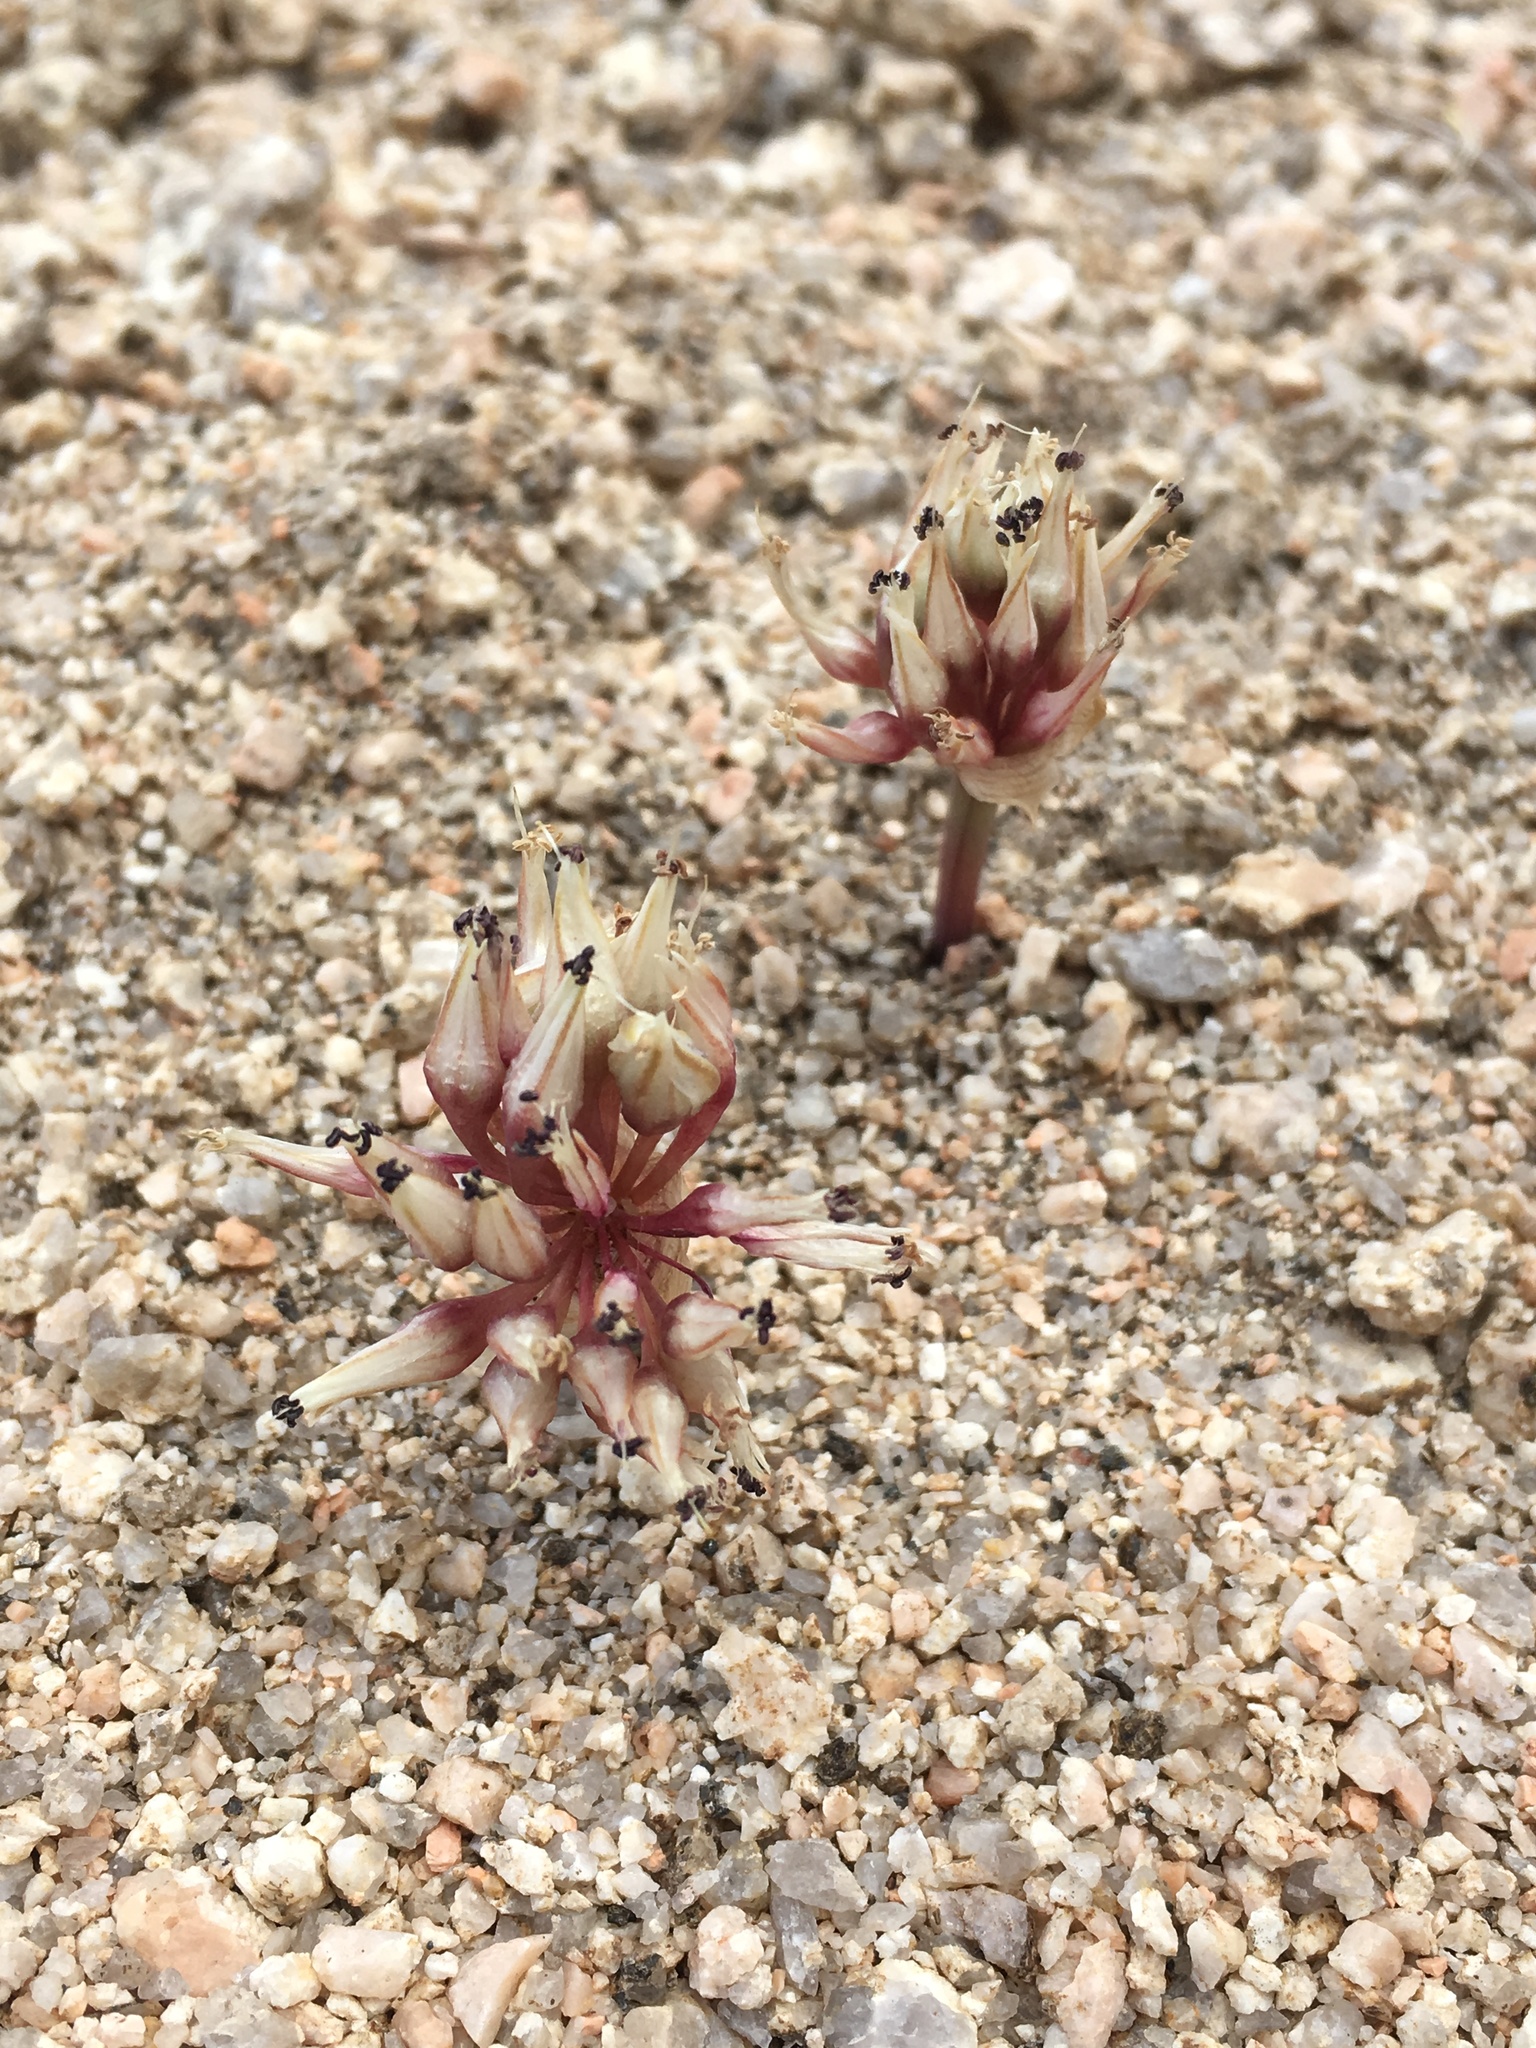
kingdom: Plantae
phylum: Tracheophyta
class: Liliopsida
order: Asparagales
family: Amaryllidaceae
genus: Allium
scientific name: Allium burlewii
